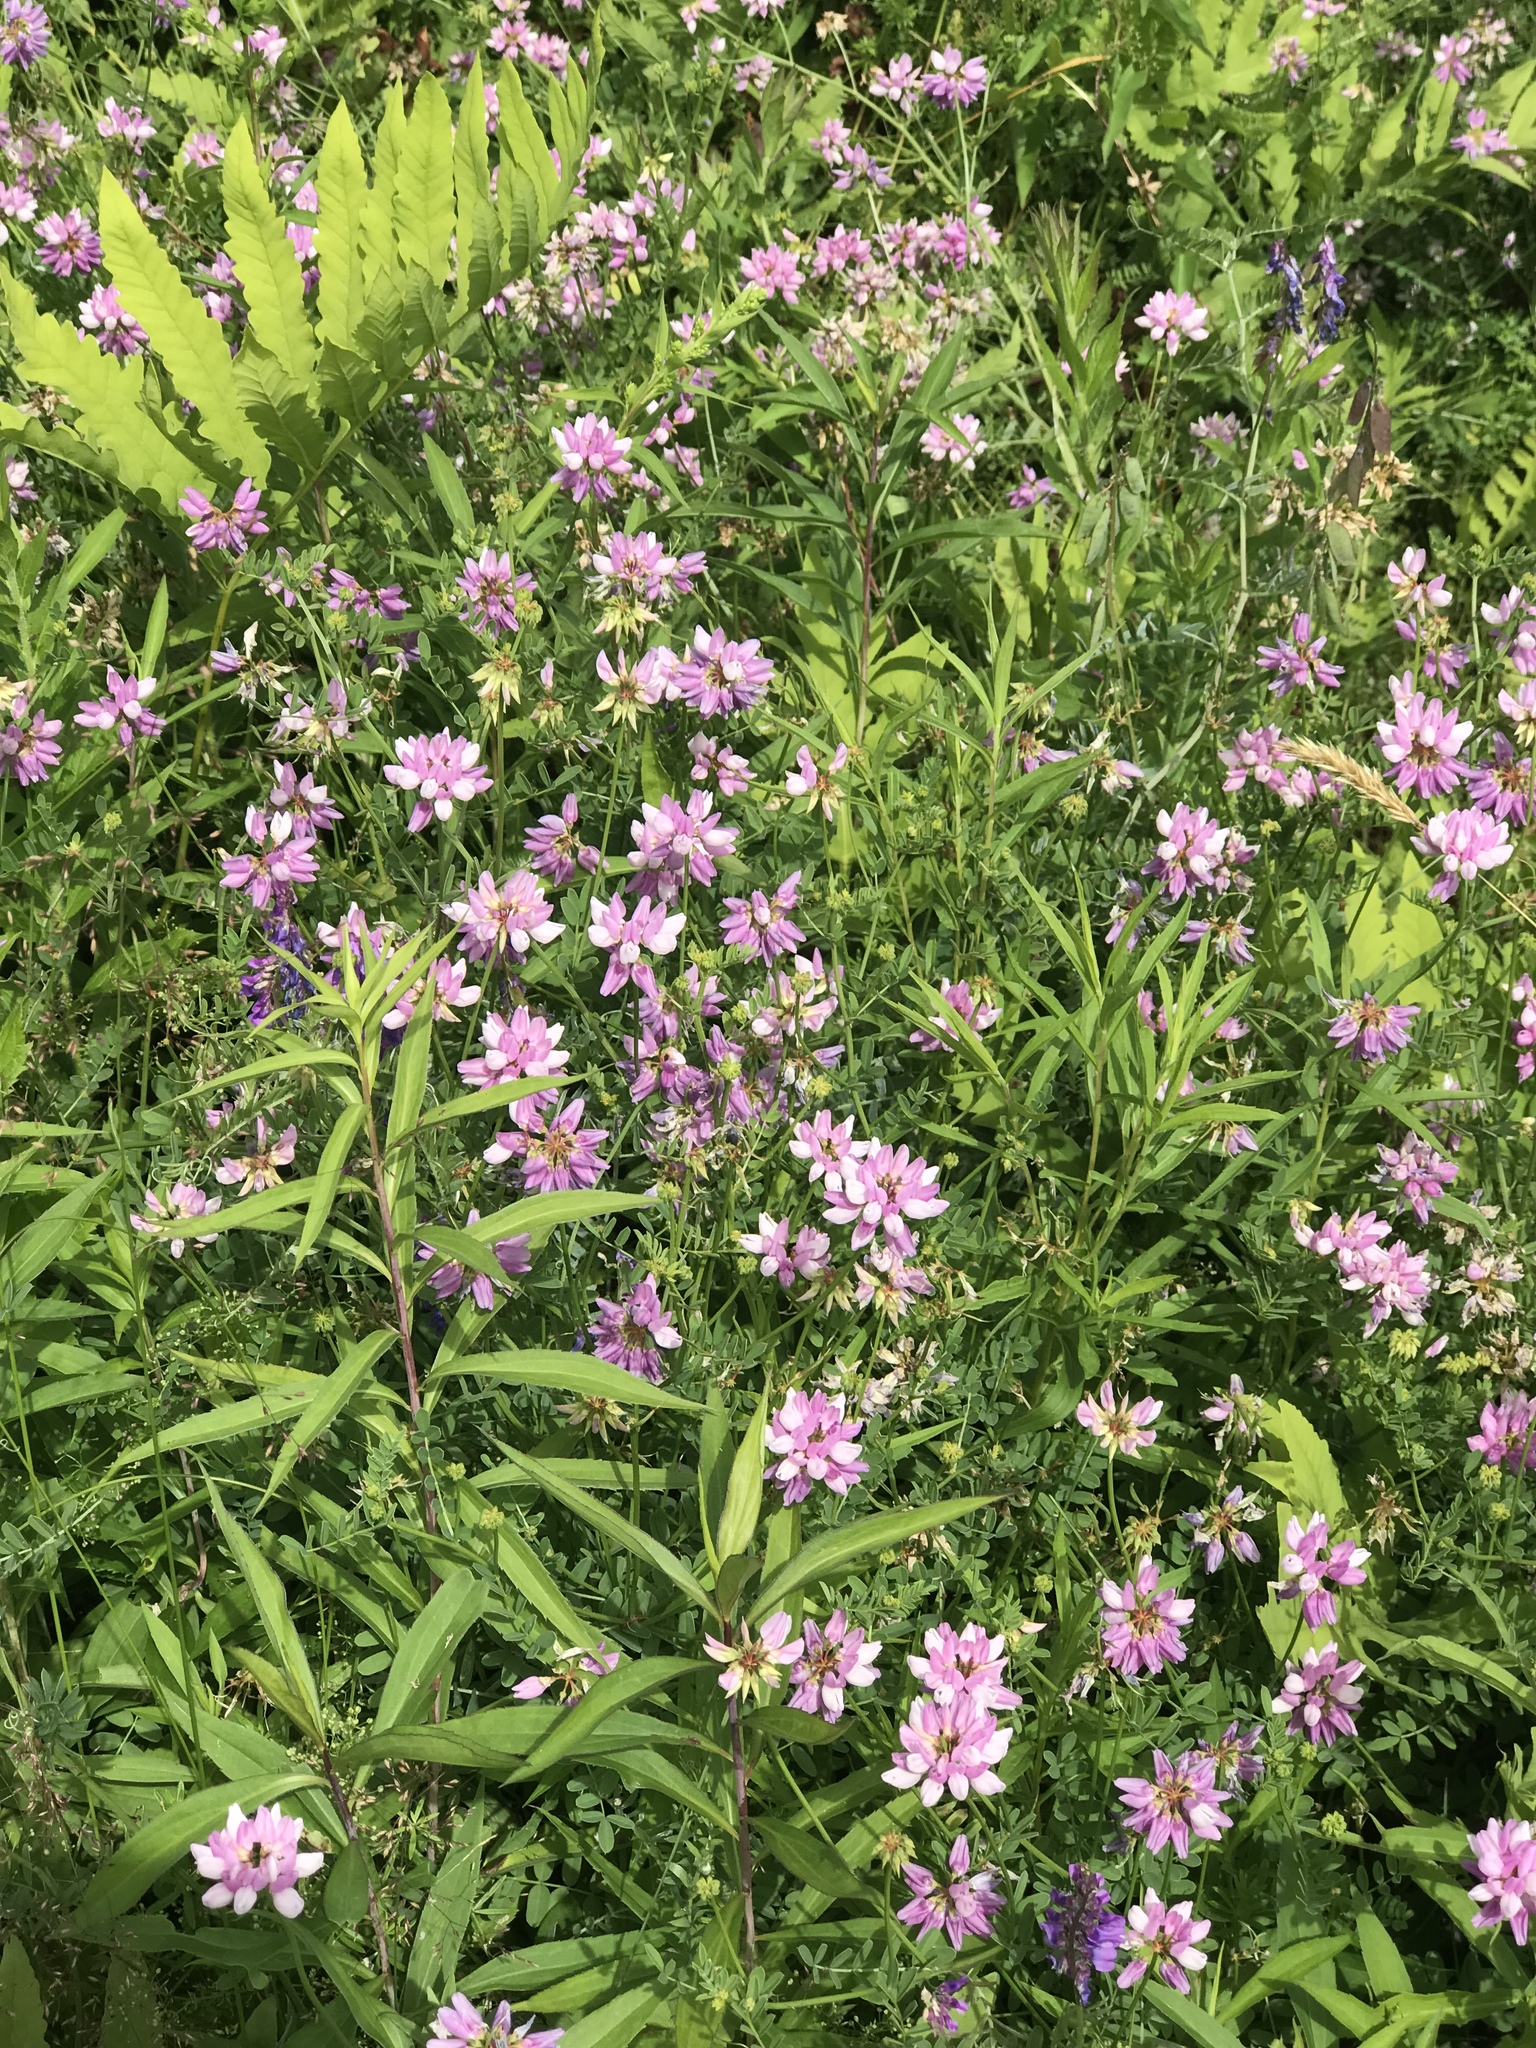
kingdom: Plantae
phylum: Tracheophyta
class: Magnoliopsida
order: Fabales
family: Fabaceae
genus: Coronilla
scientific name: Coronilla varia
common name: Crownvetch
